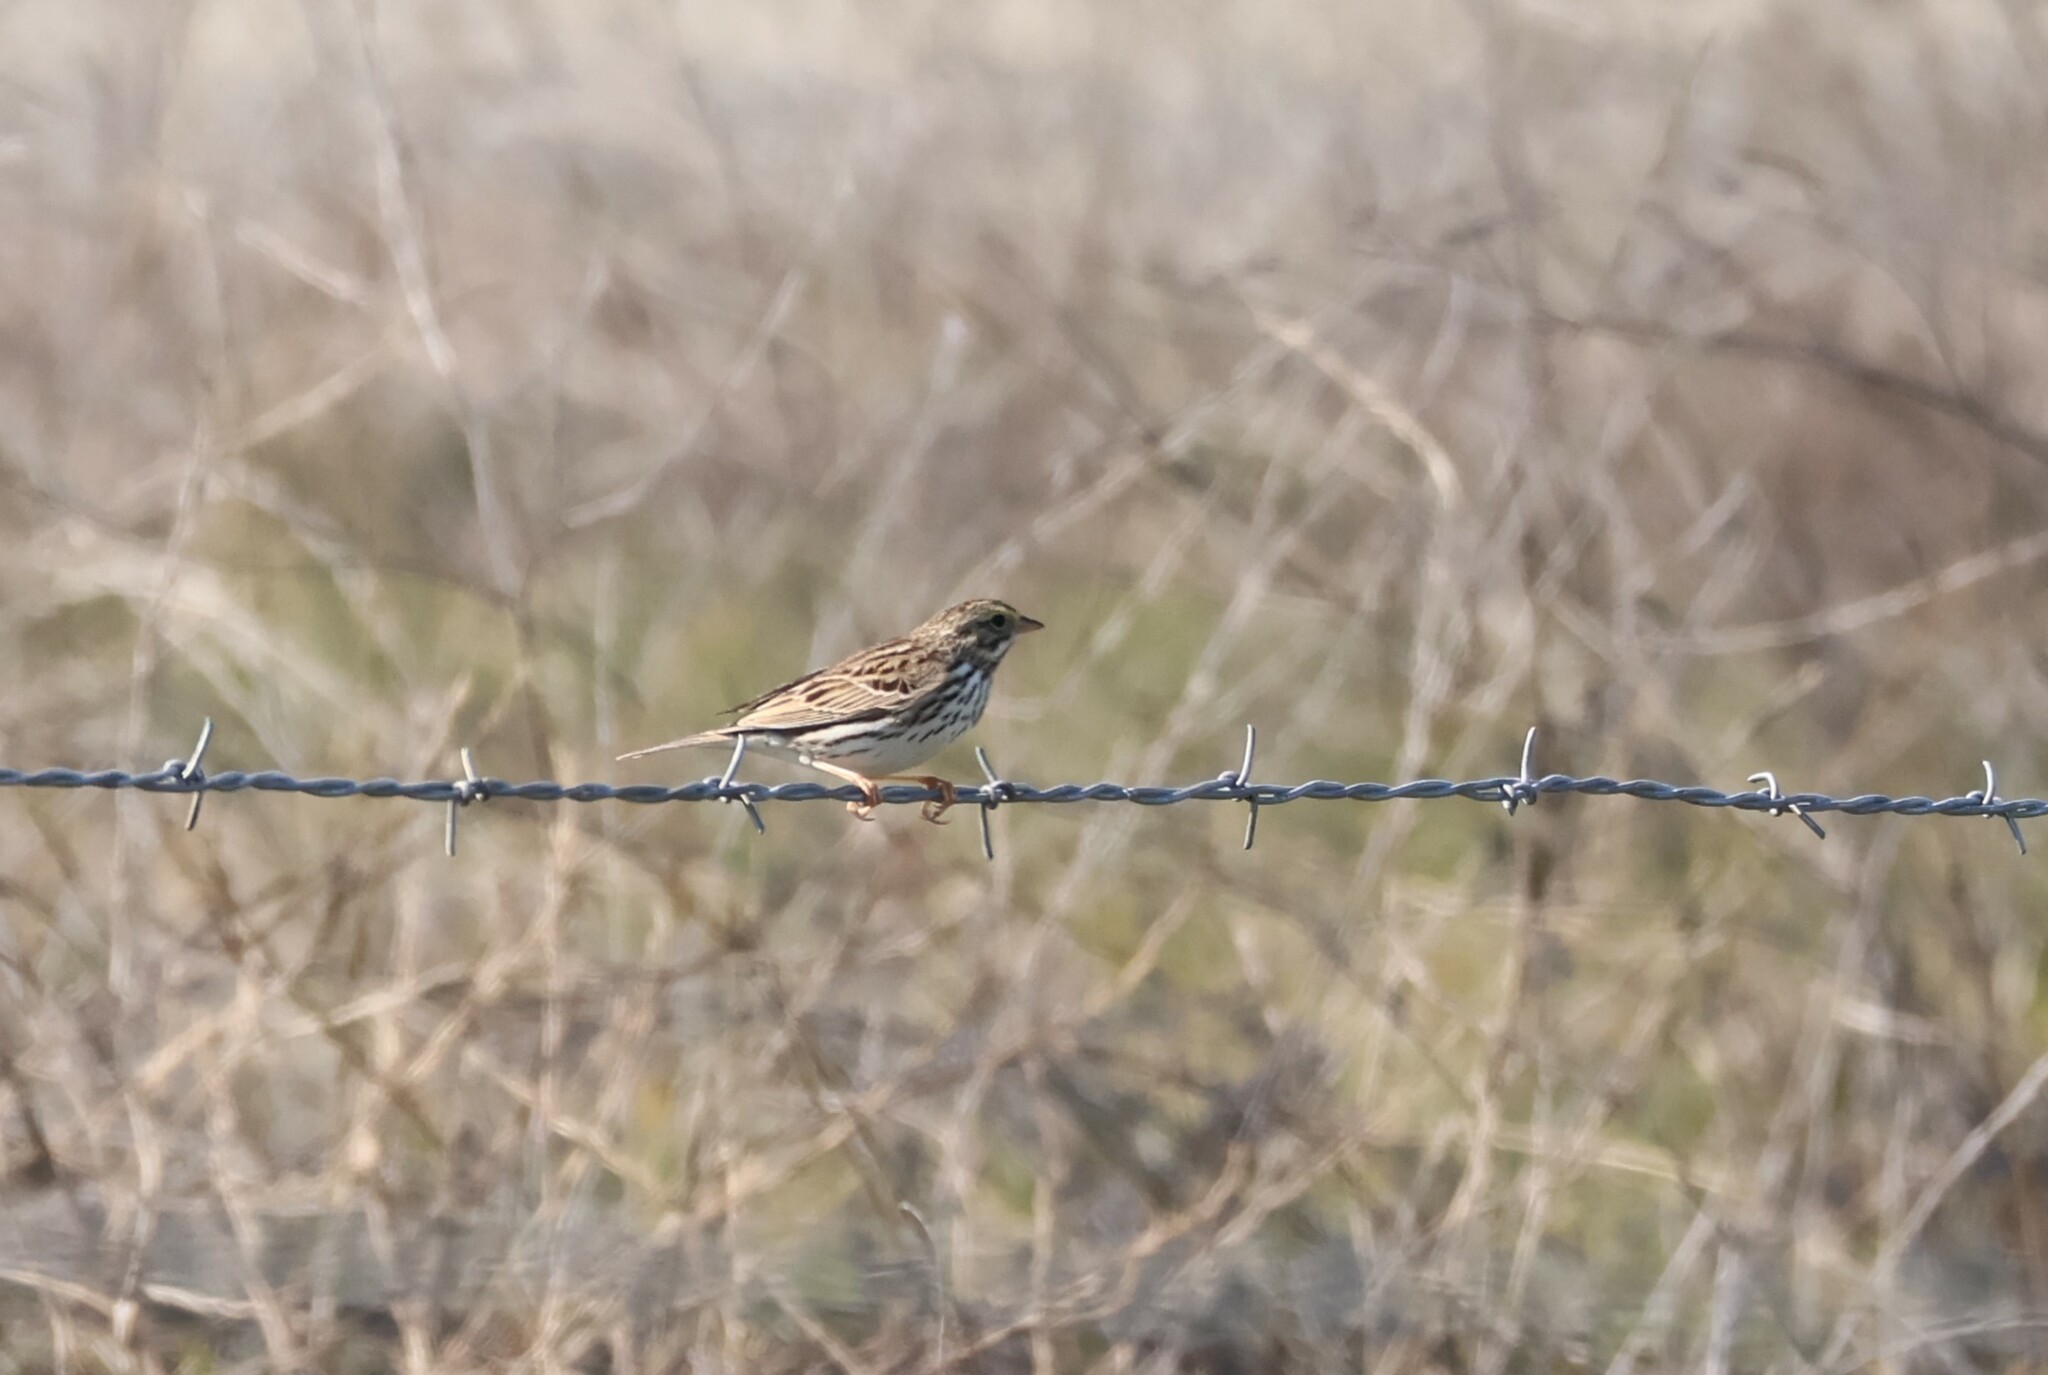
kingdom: Animalia
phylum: Chordata
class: Aves
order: Passeriformes
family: Passerellidae
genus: Passerculus
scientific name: Passerculus sandwichensis
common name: Savannah sparrow
